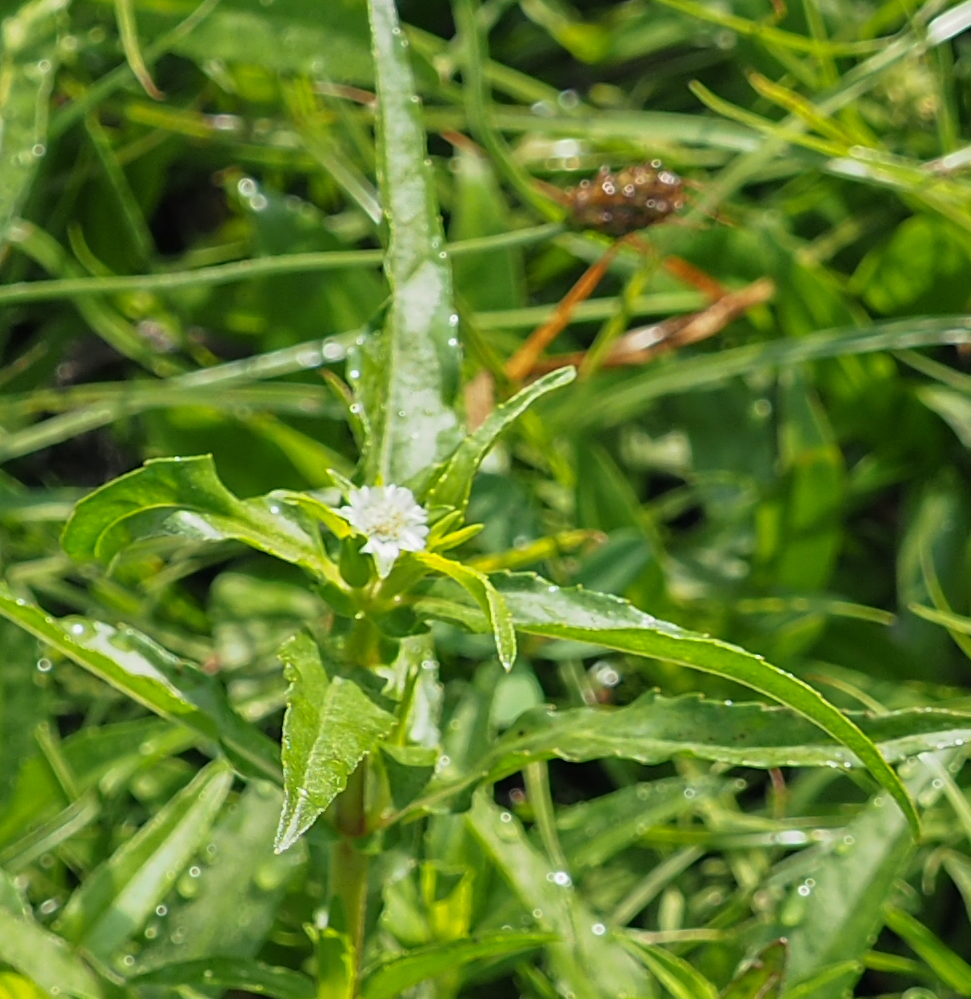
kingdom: Plantae
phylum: Tracheophyta
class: Magnoliopsida
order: Asterales
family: Asteraceae
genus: Eclipta
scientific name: Eclipta prostrata
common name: False daisy
